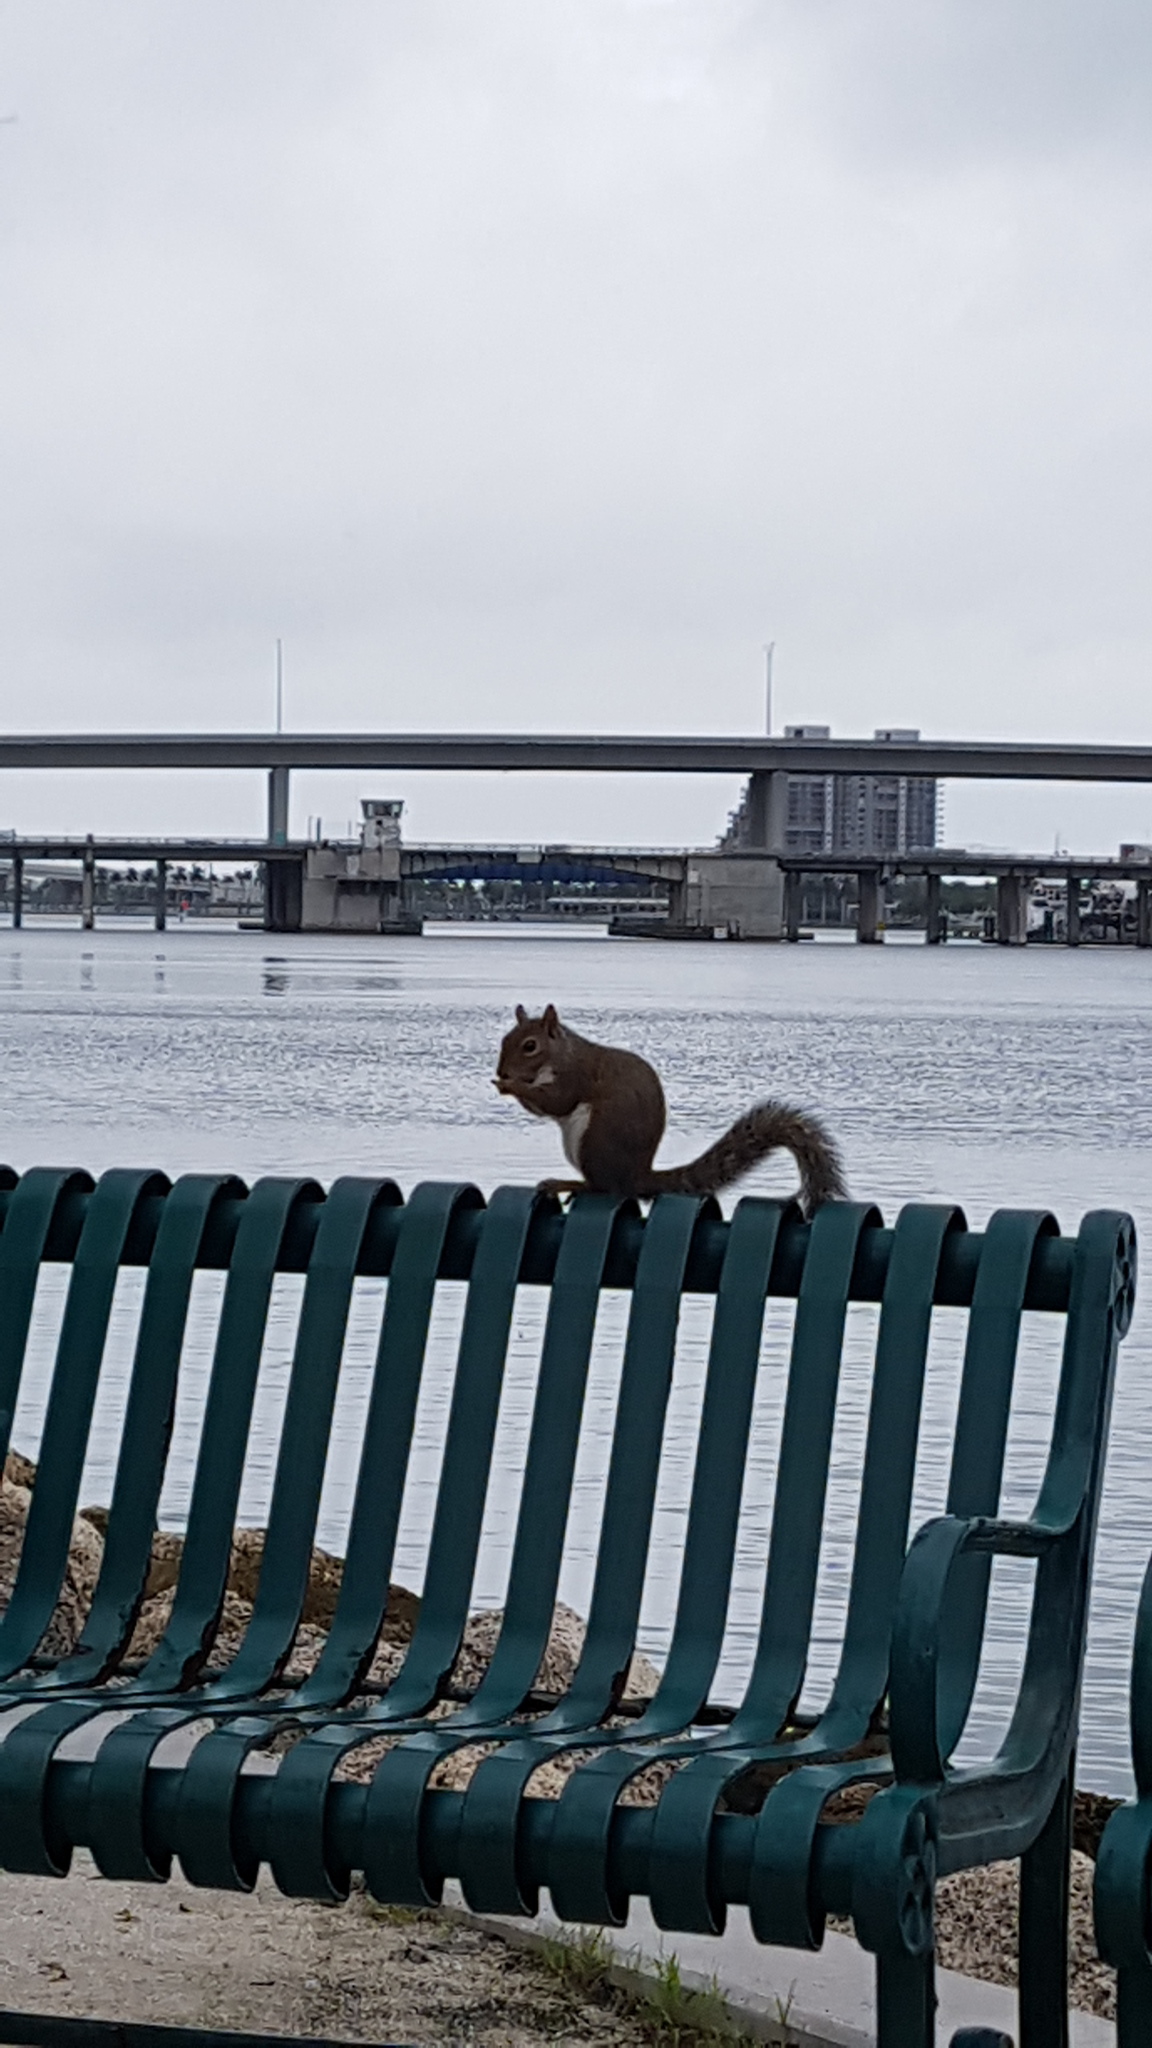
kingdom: Animalia
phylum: Chordata
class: Mammalia
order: Rodentia
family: Sciuridae
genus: Sciurus
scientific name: Sciurus carolinensis
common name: Eastern gray squirrel
